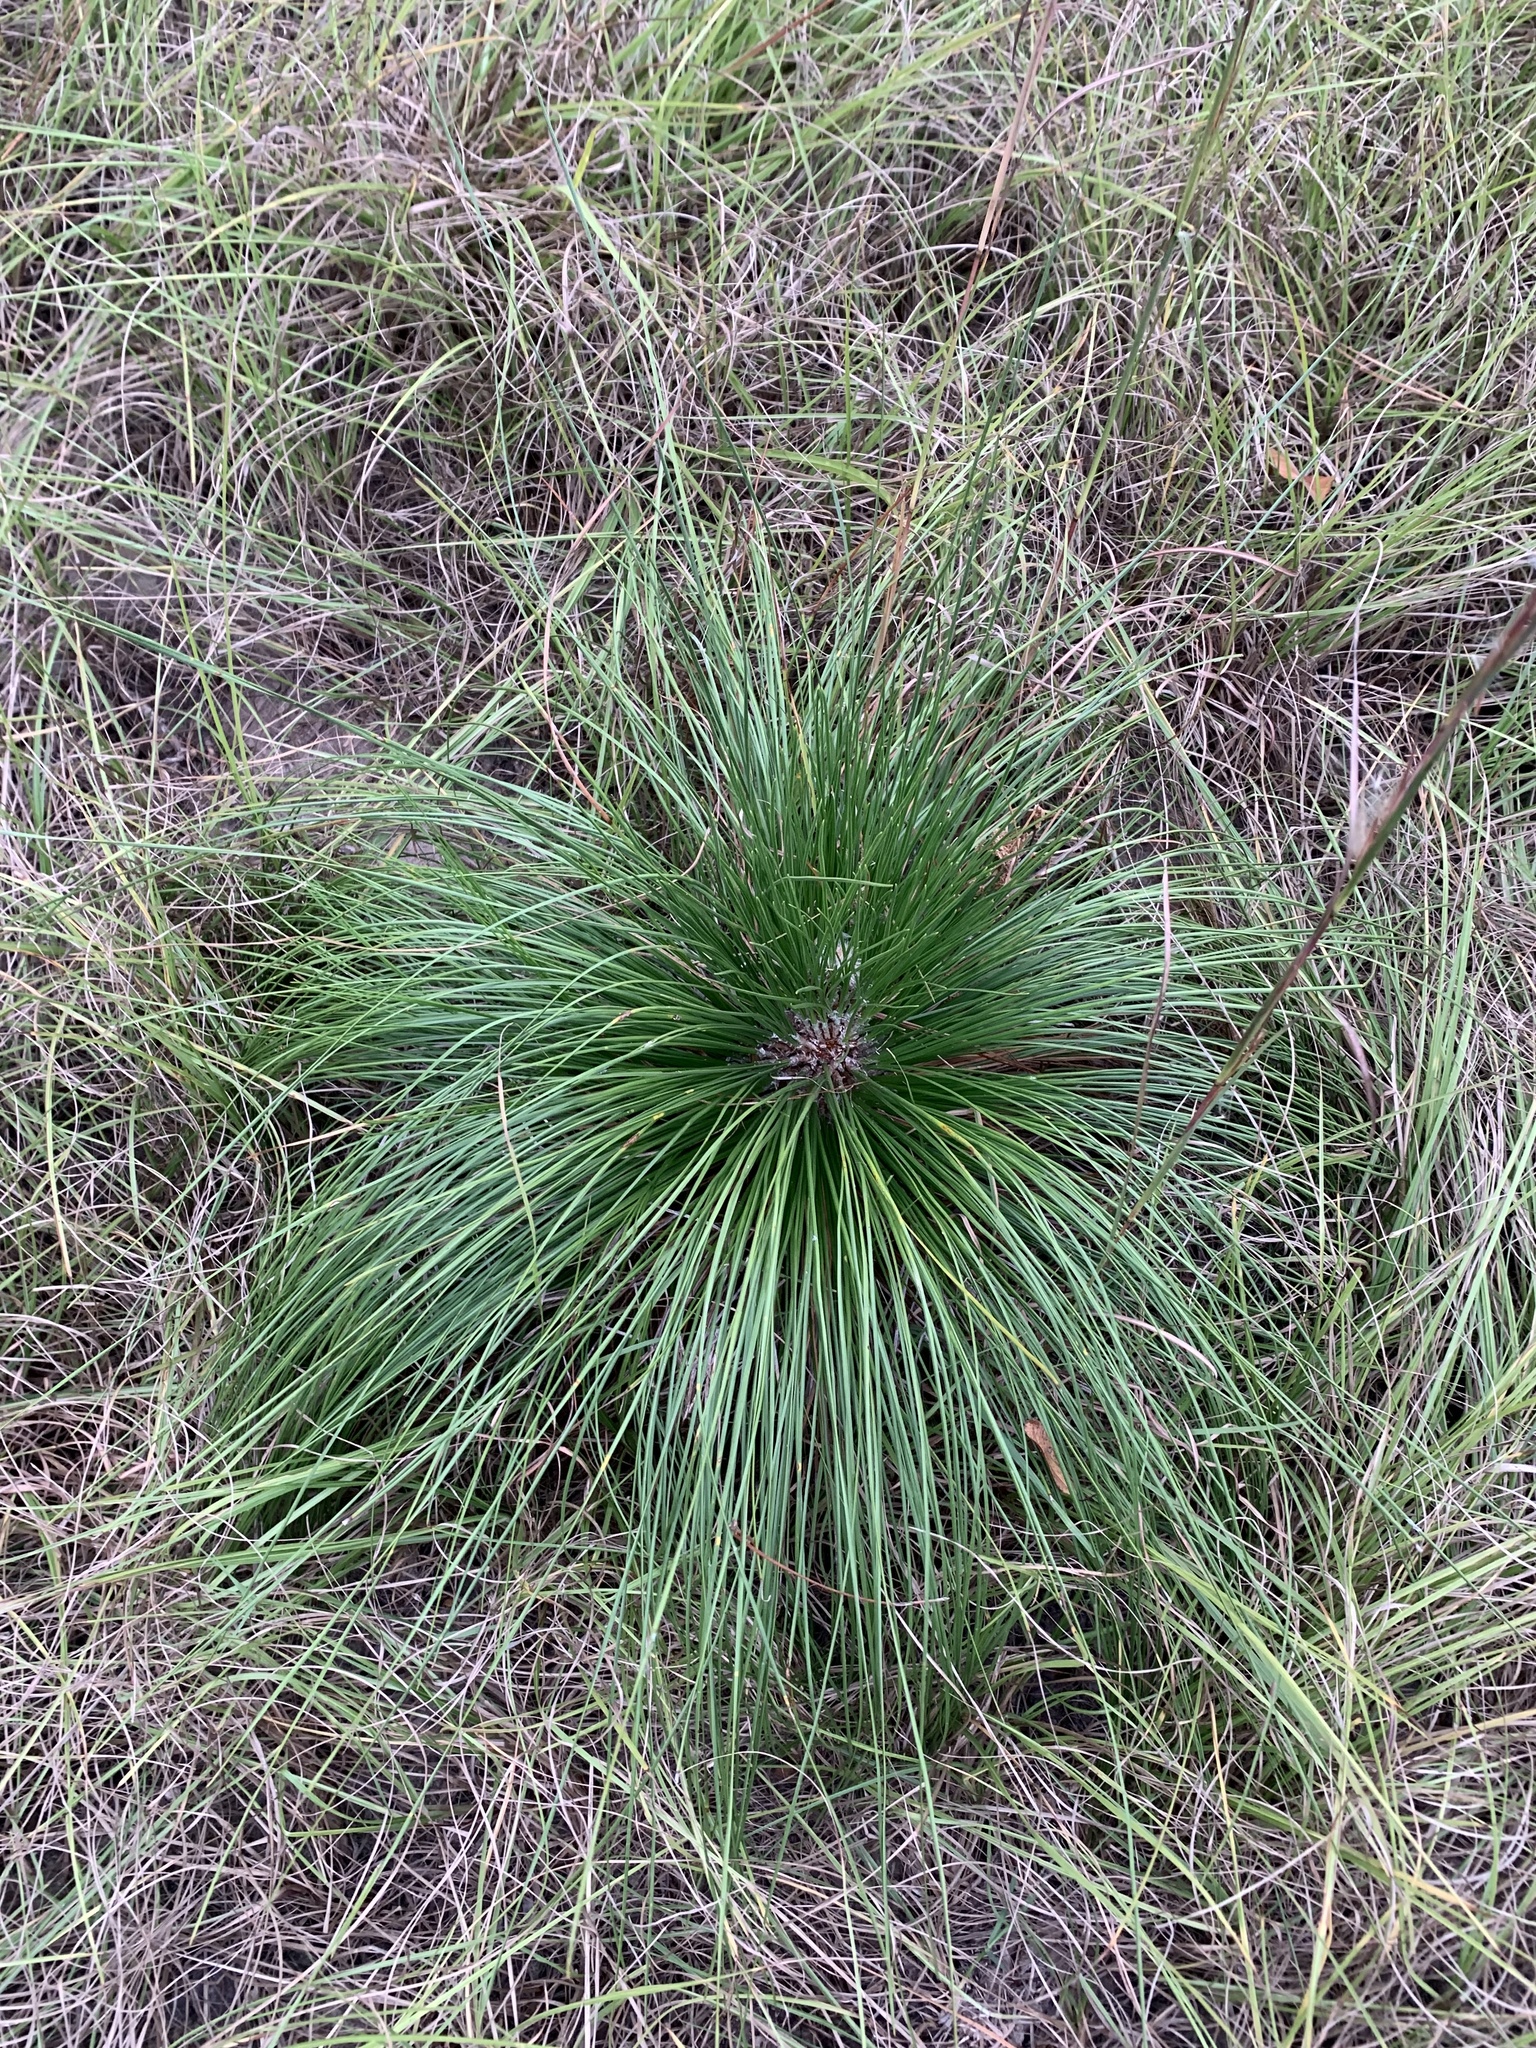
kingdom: Plantae
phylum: Tracheophyta
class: Pinopsida
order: Pinales
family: Pinaceae
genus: Pinus
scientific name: Pinus palustris
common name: Longleaf pine
